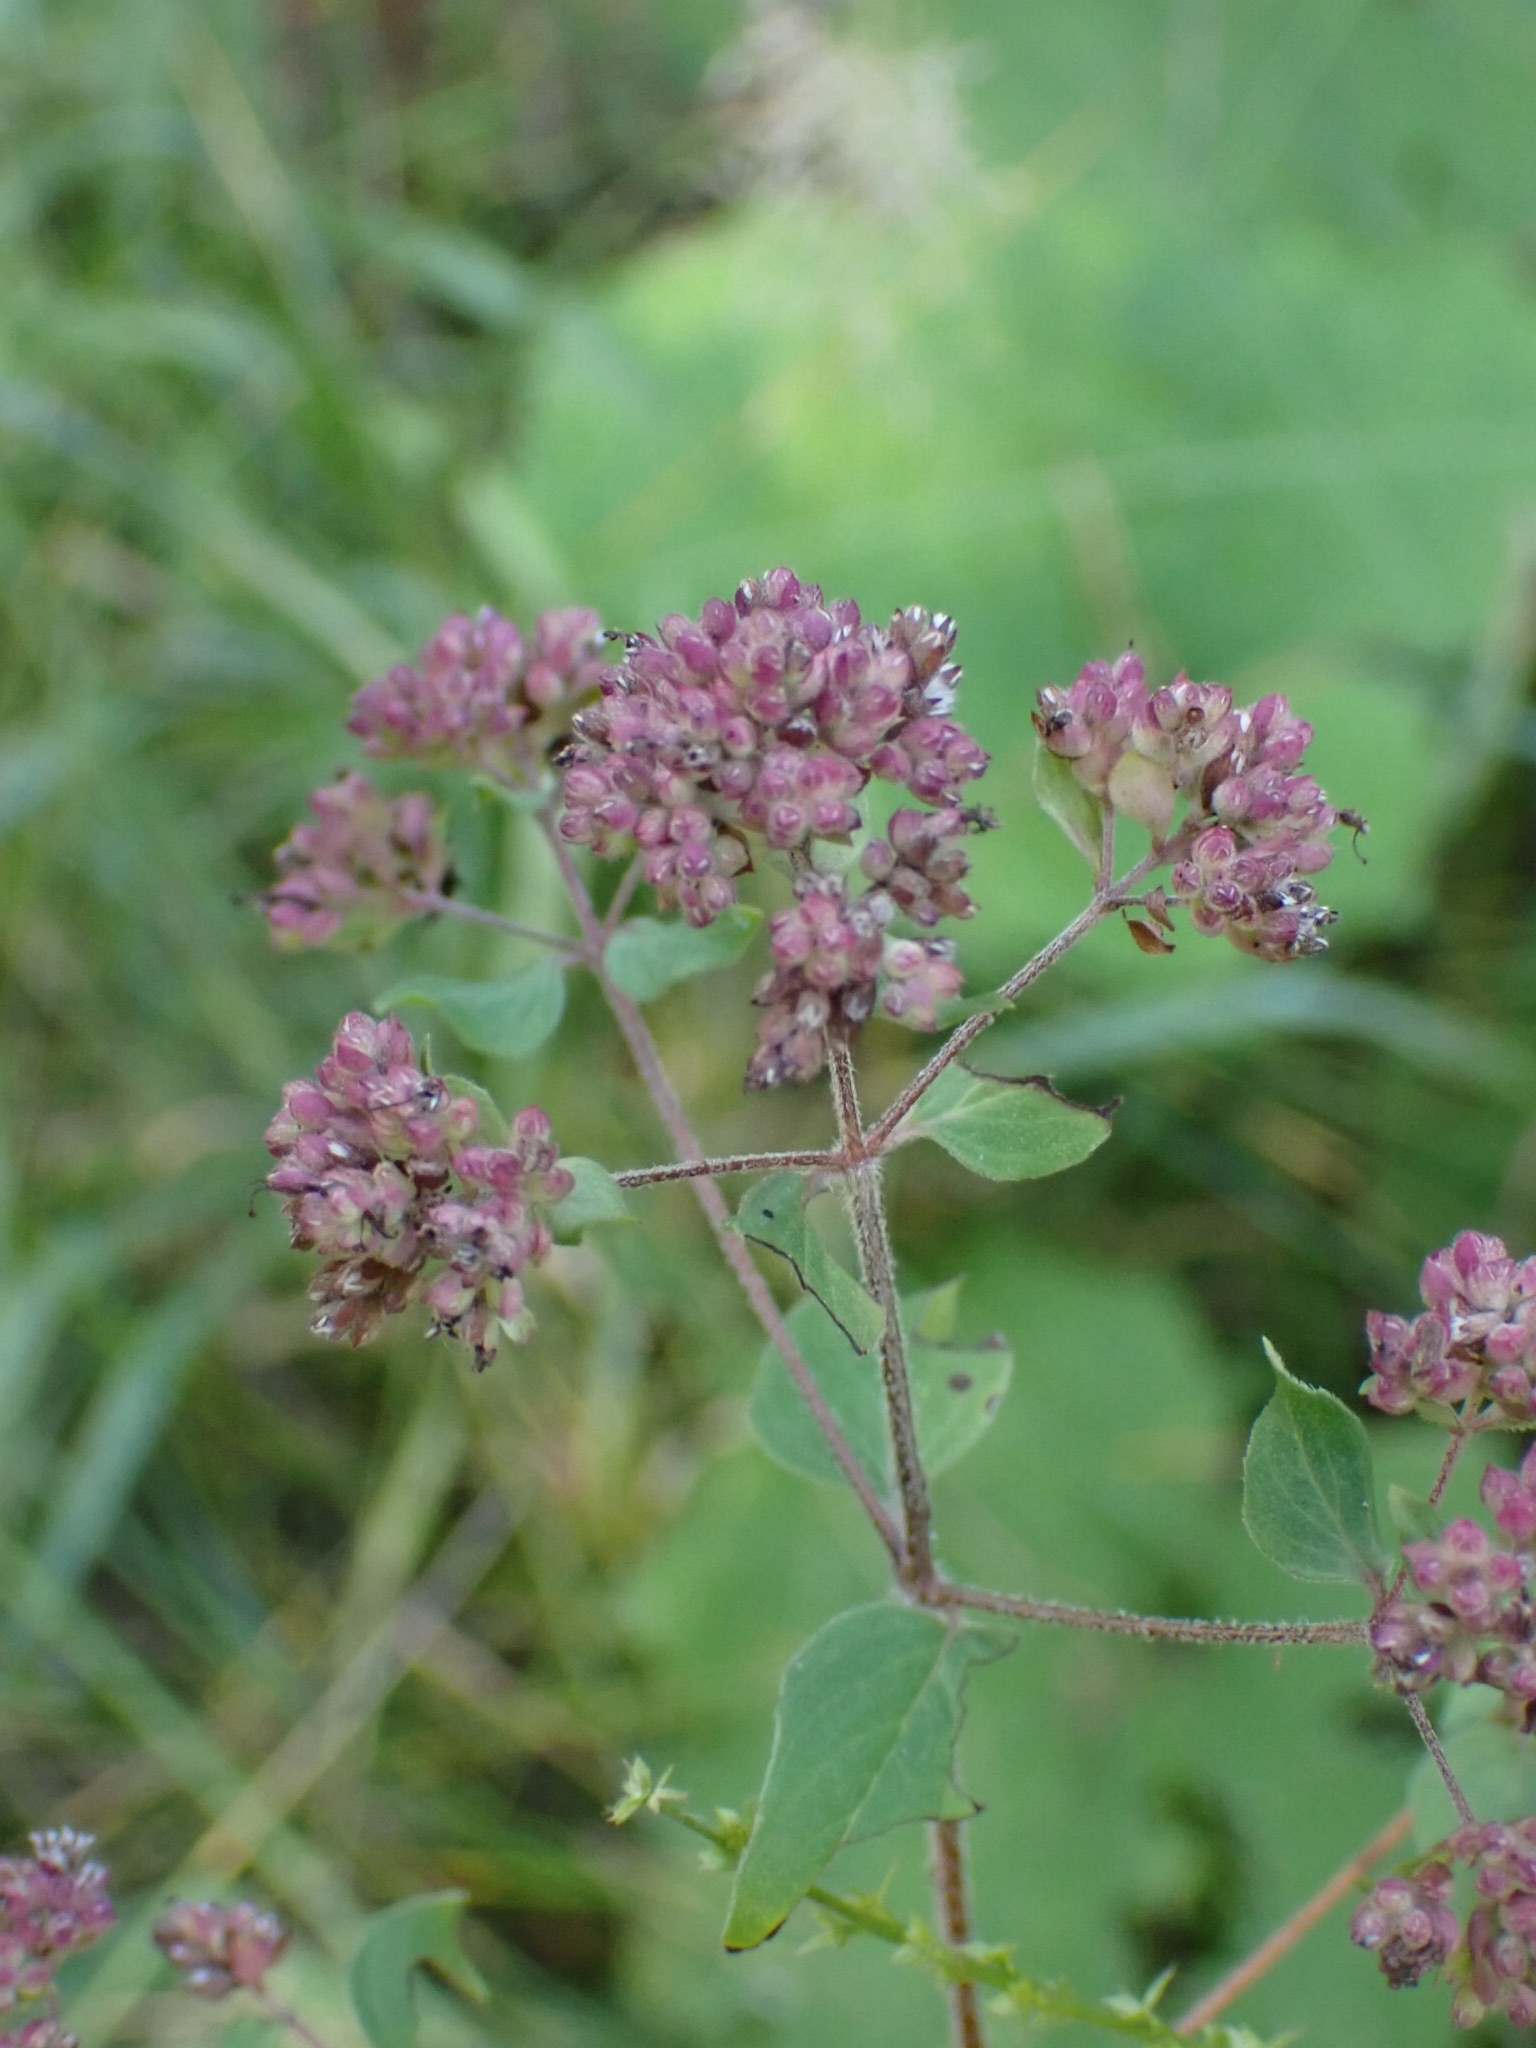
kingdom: Plantae
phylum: Tracheophyta
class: Magnoliopsida
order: Lamiales
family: Lamiaceae
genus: Origanum
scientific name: Origanum vulgare
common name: Wild marjoram
